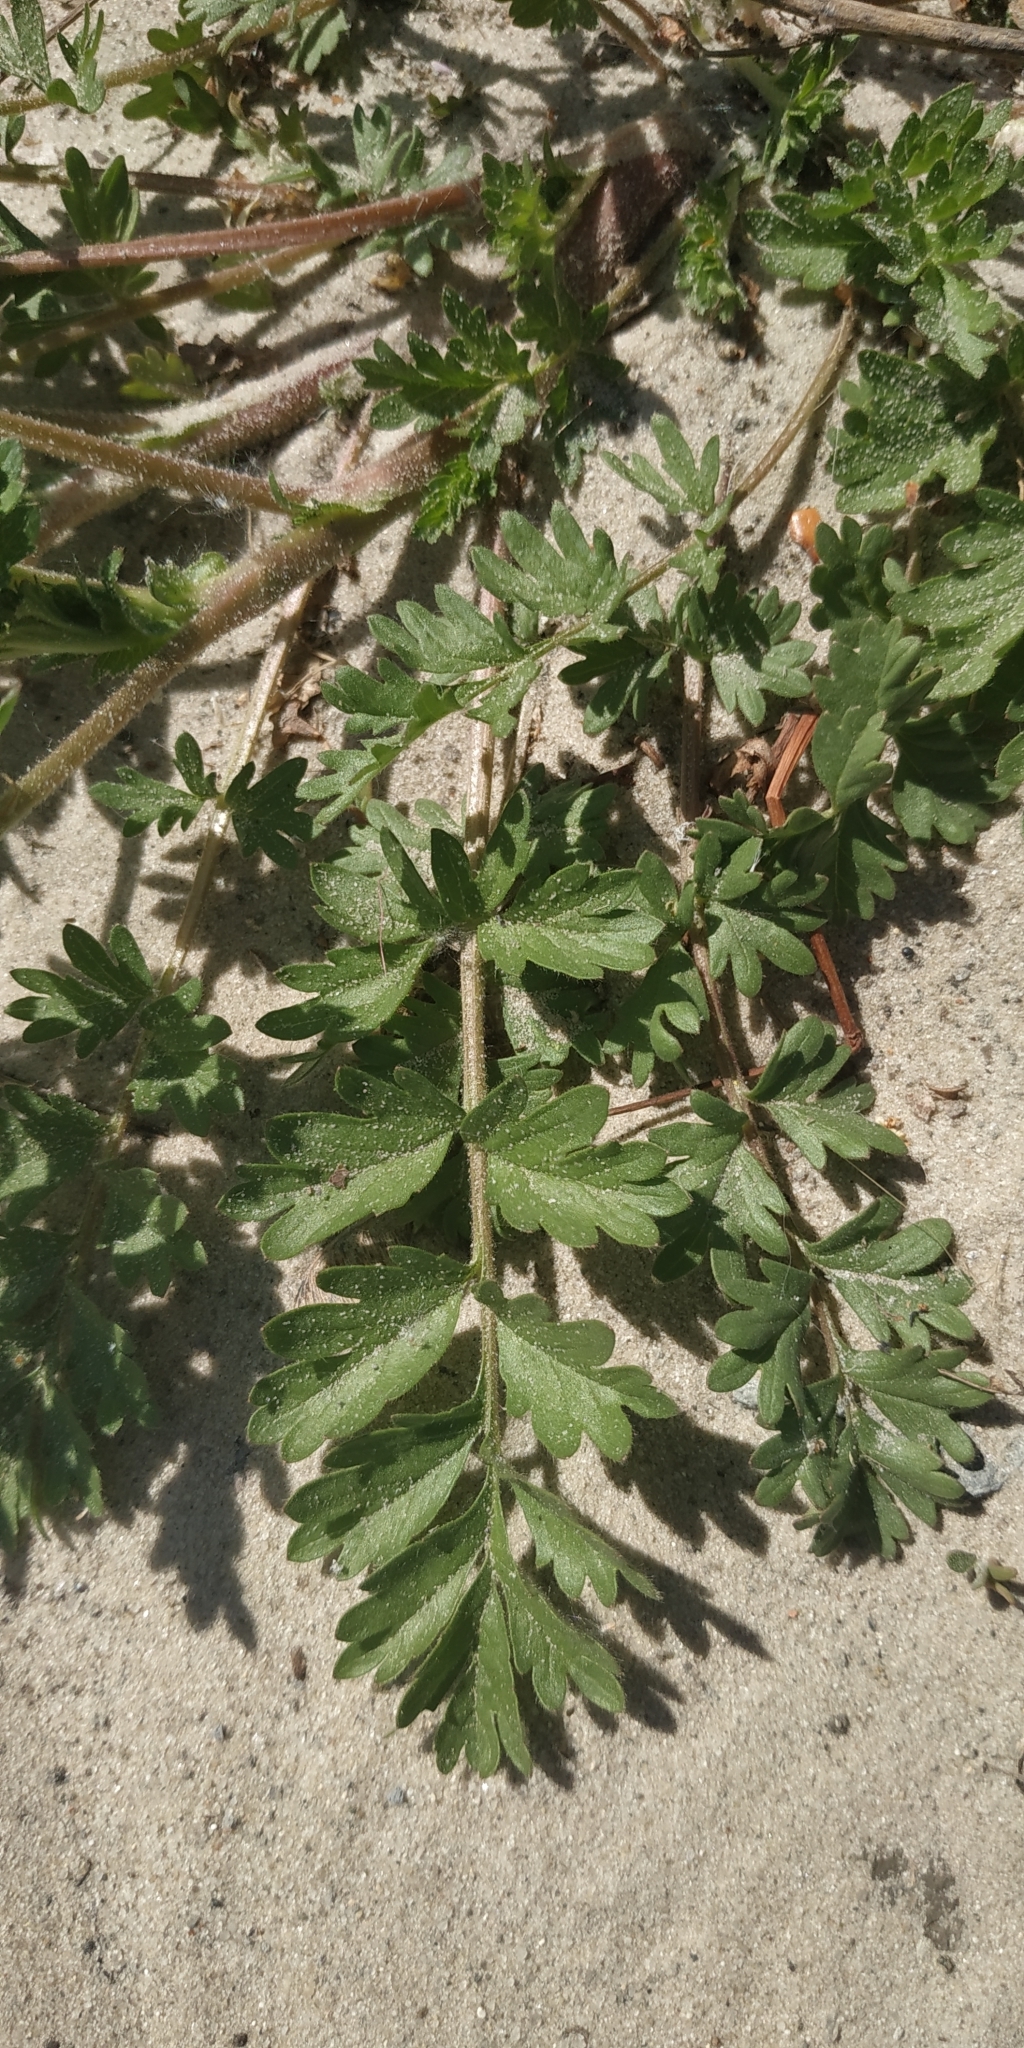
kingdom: Plantae
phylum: Tracheophyta
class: Magnoliopsida
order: Rosales
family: Rosaceae
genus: Potentilla
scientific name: Potentilla supina
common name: Prostrate cinquefoil
